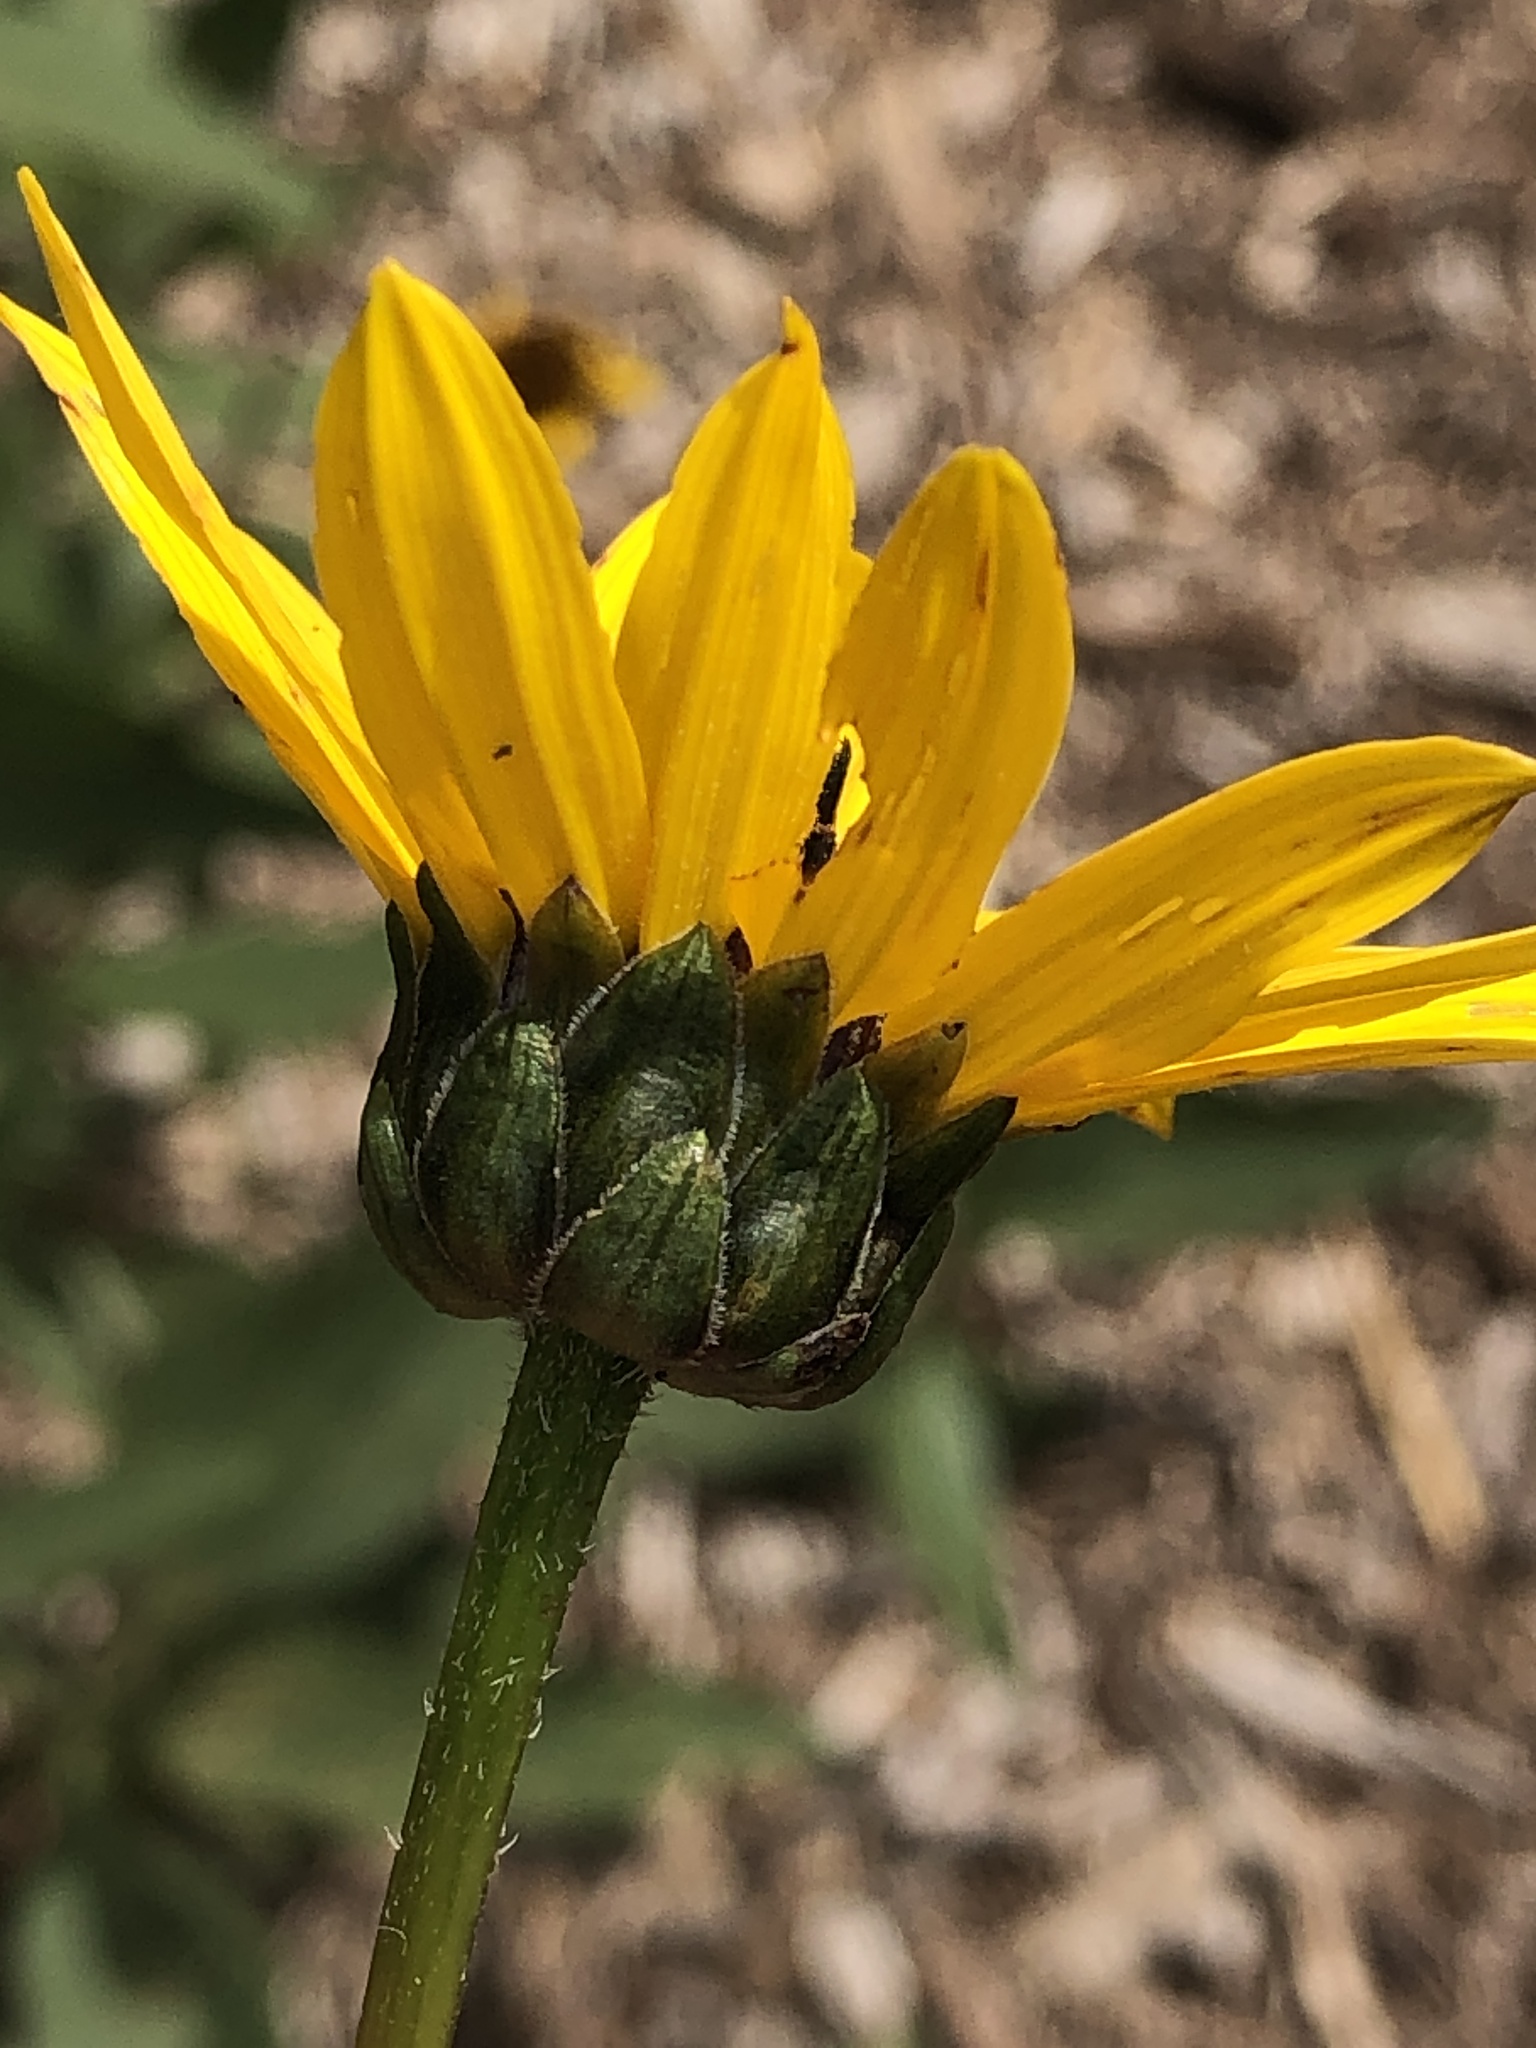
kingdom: Plantae
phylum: Tracheophyta
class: Magnoliopsida
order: Asterales
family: Asteraceae
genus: Helianthus
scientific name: Helianthus pauciflorus
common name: Stiff sunflower
